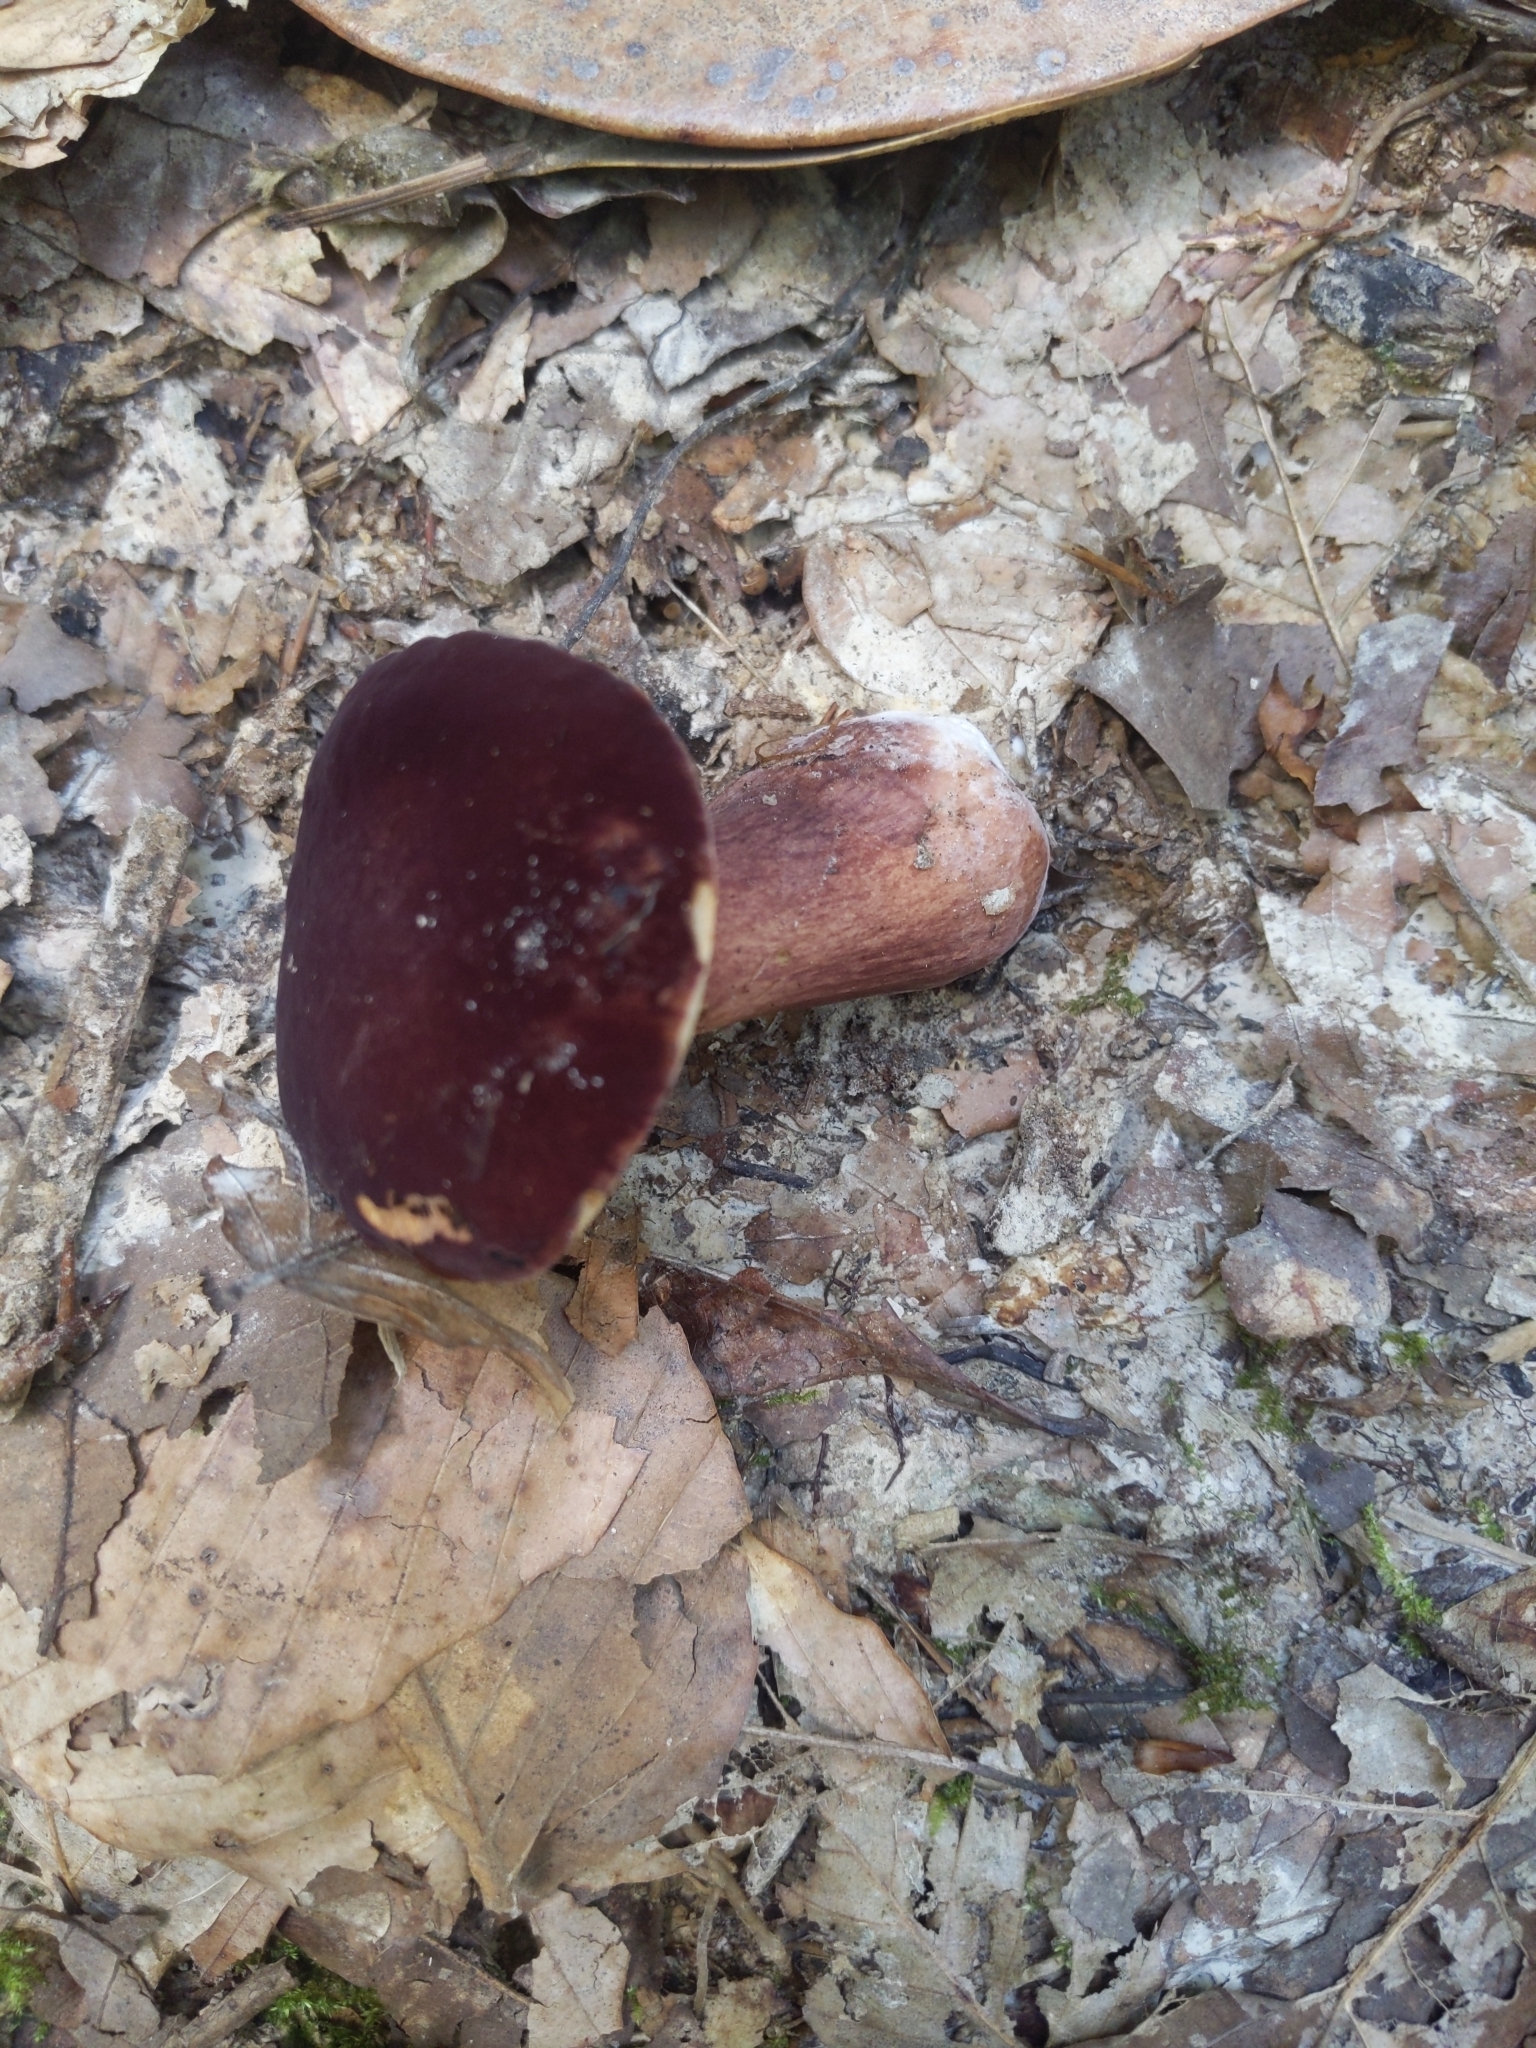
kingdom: Fungi
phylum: Basidiomycota
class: Agaricomycetes
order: Boletales
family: Boletaceae
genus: Tylopilus
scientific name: Tylopilus badiceps
